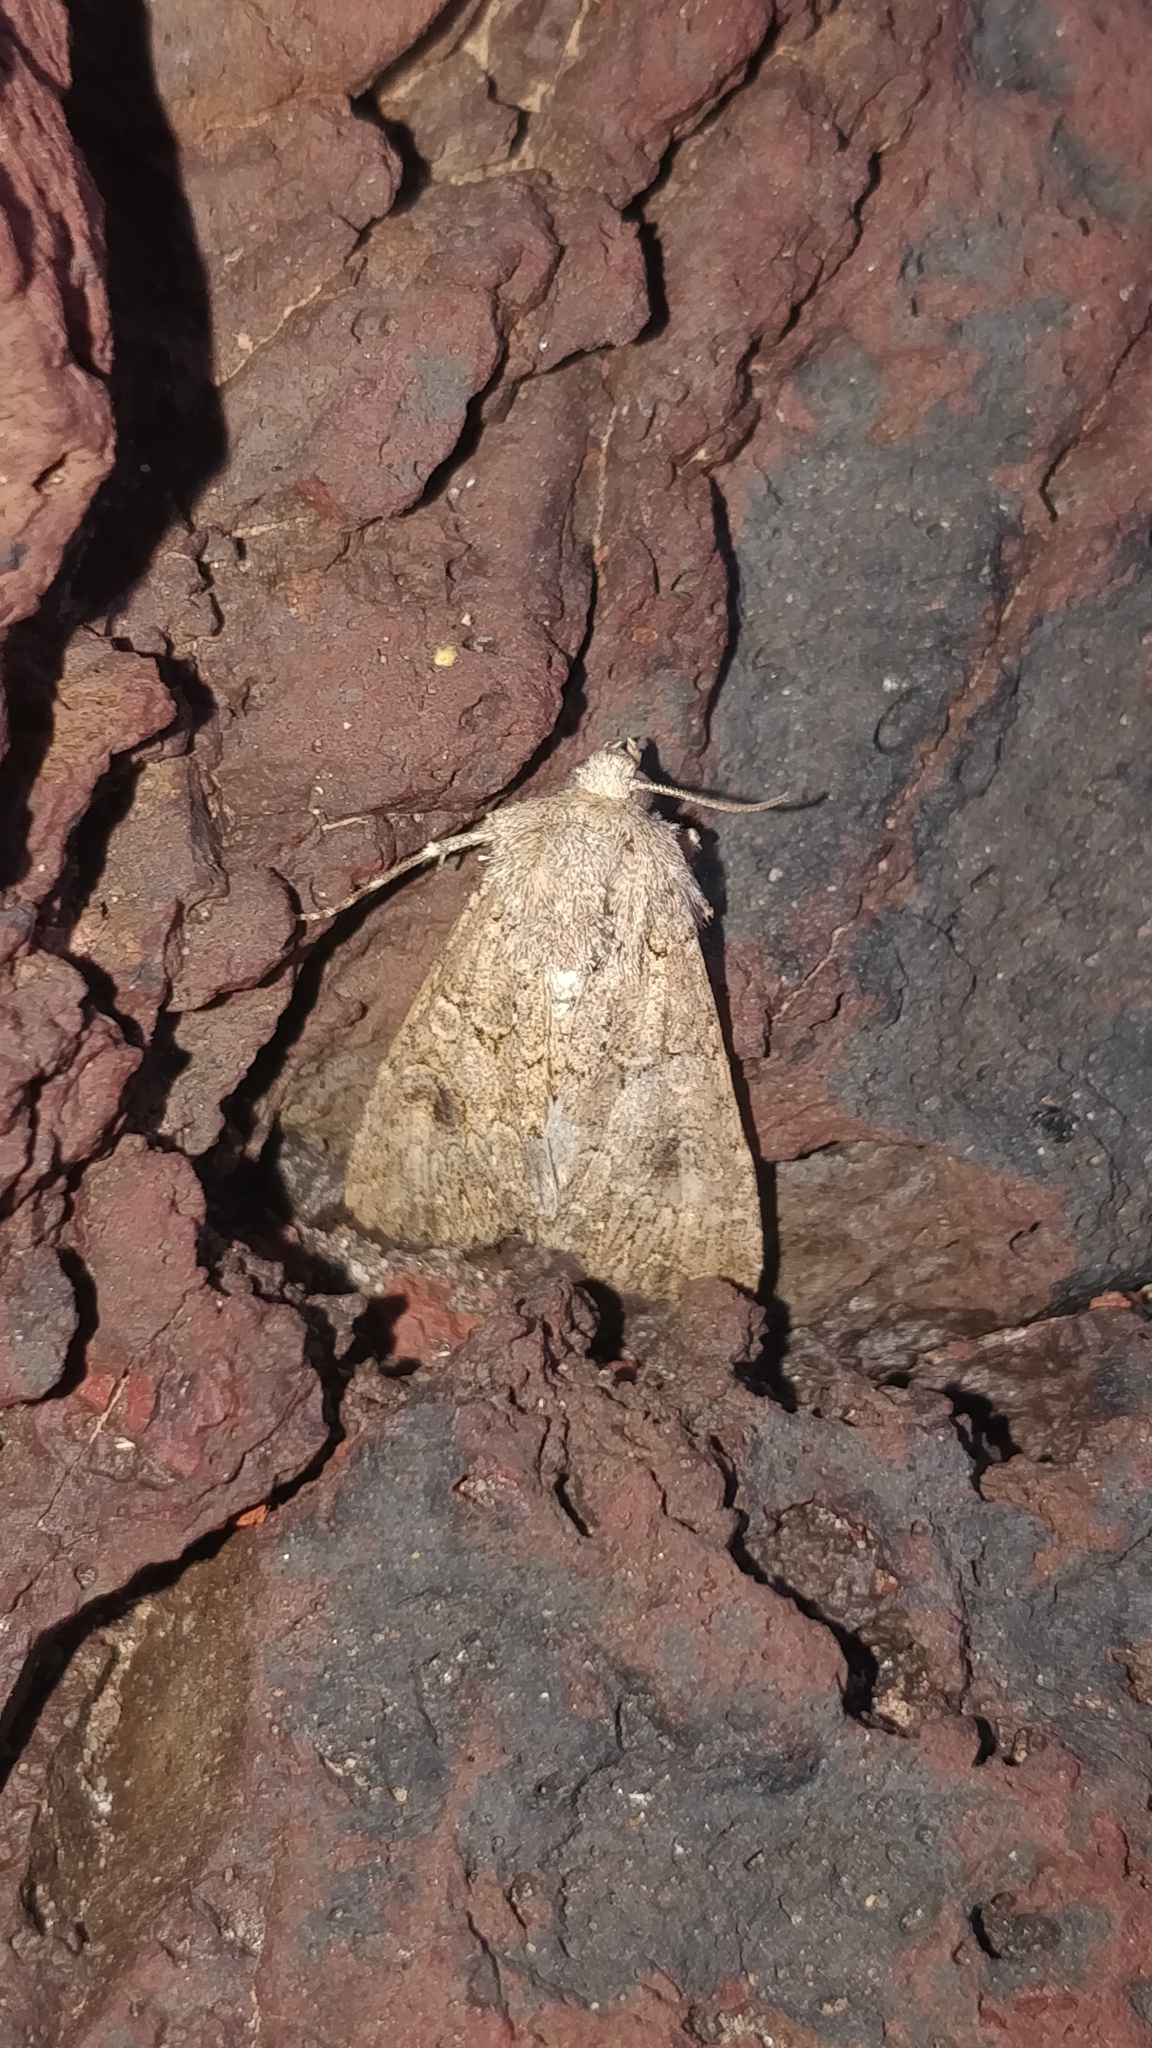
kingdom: Animalia
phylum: Arthropoda
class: Insecta
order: Lepidoptera
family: Noctuidae
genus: Anarta
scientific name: Anarta trifolii
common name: Clover cutworm moth
